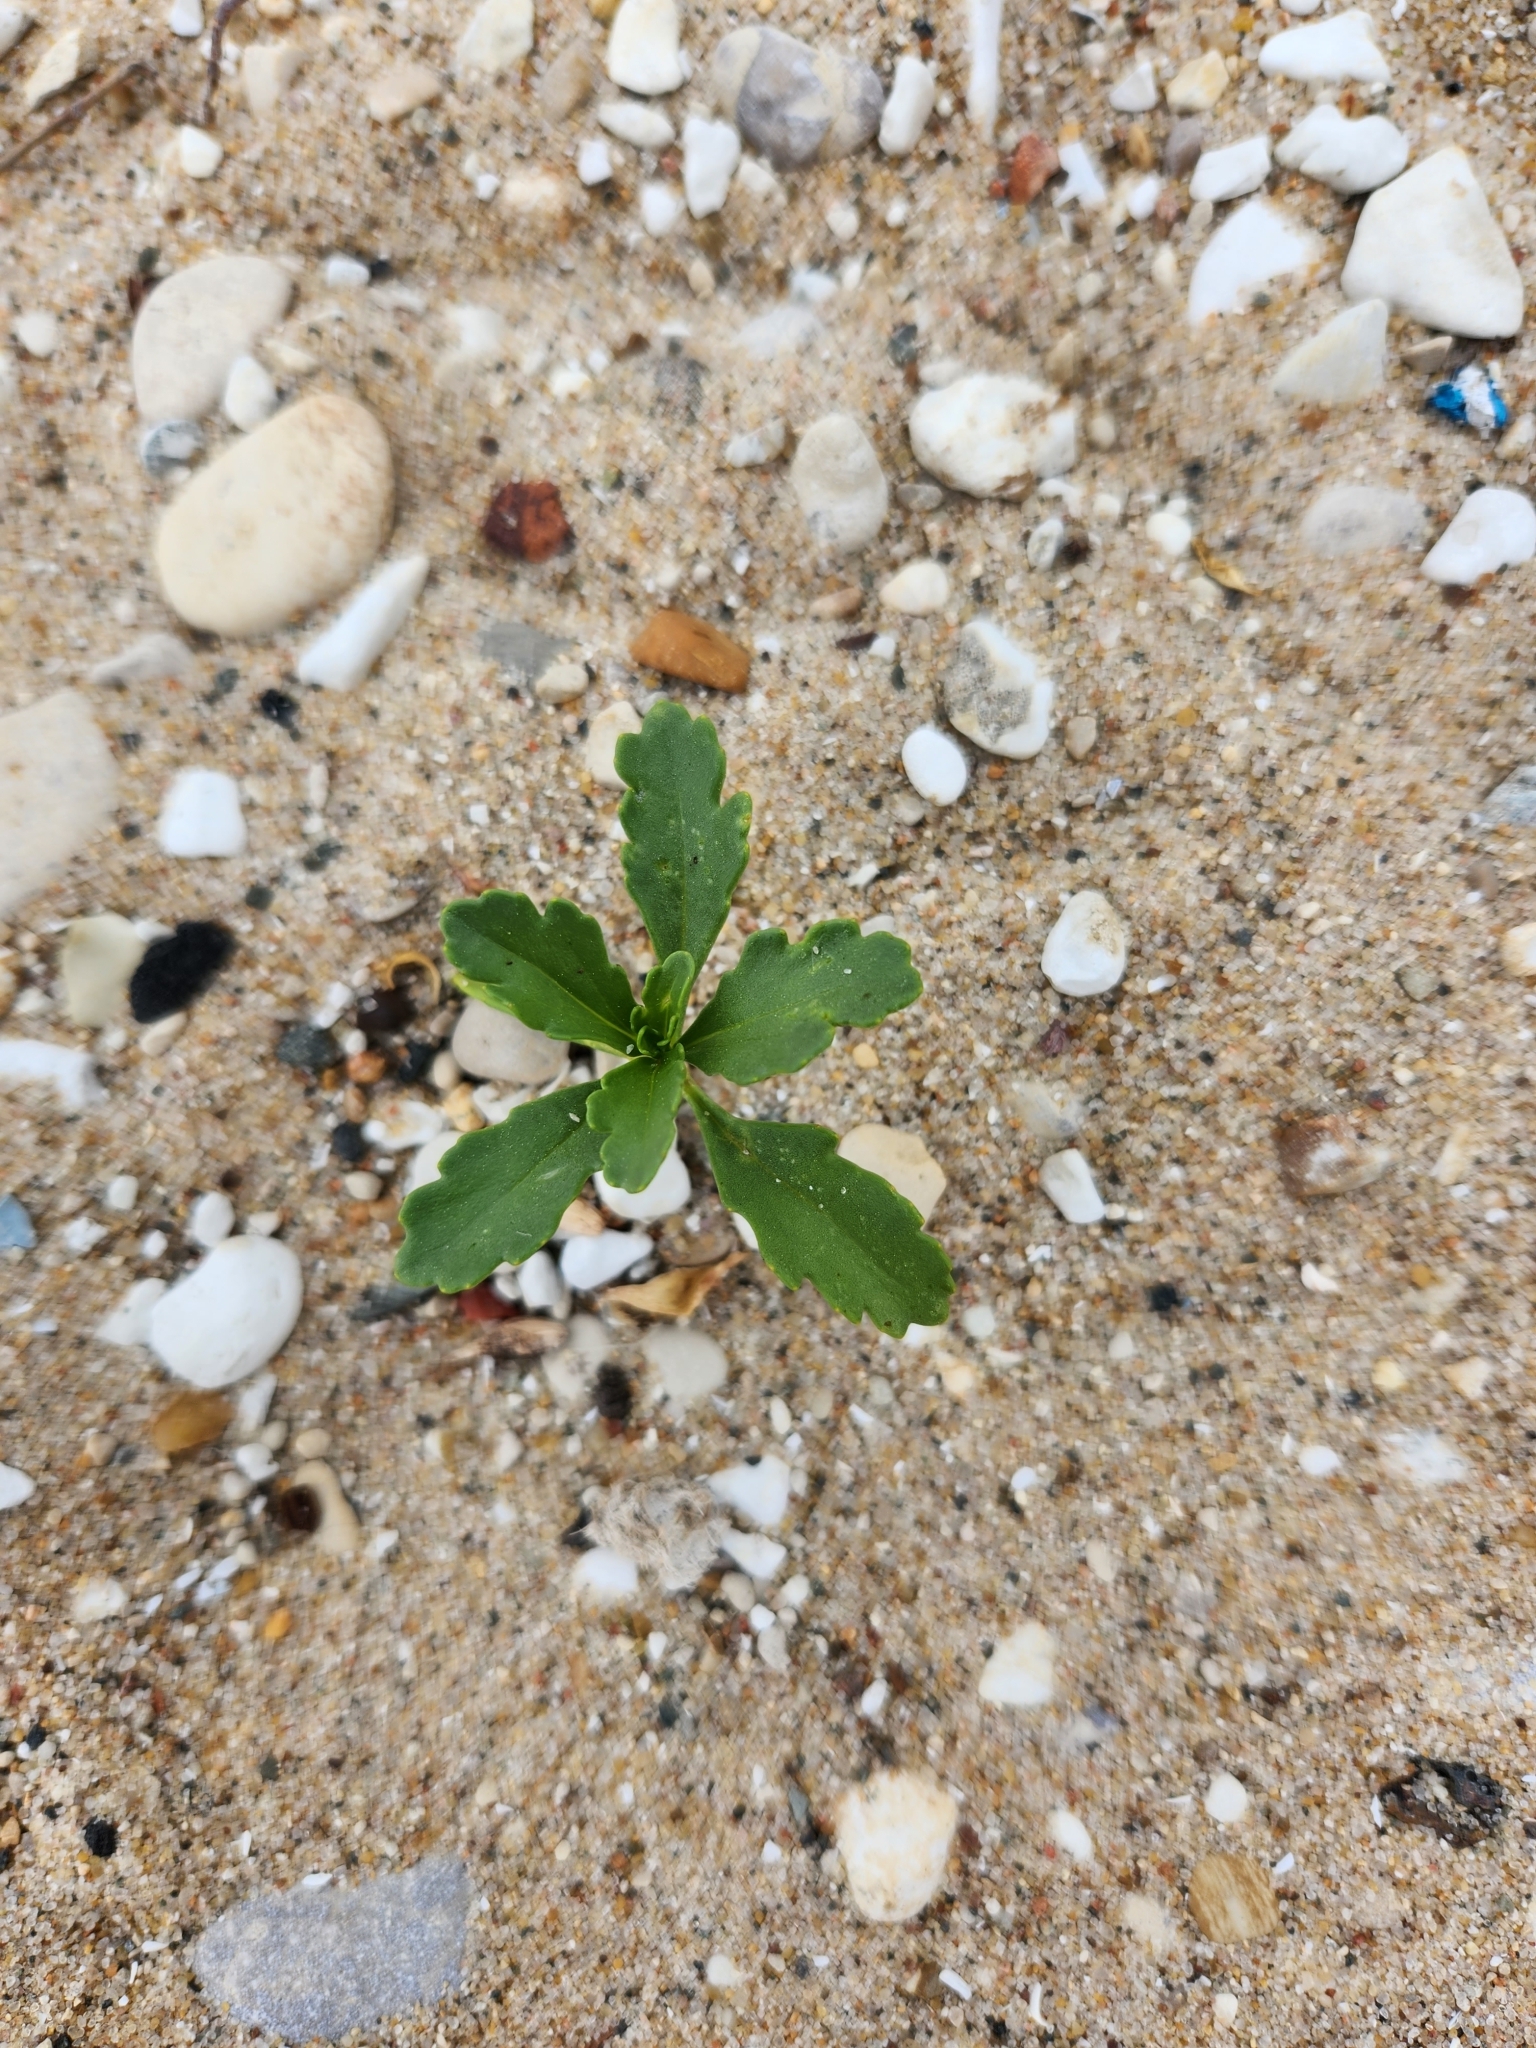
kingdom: Plantae
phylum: Tracheophyta
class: Magnoliopsida
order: Brassicales
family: Brassicaceae
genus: Cakile
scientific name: Cakile edentula
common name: American sea rocket
